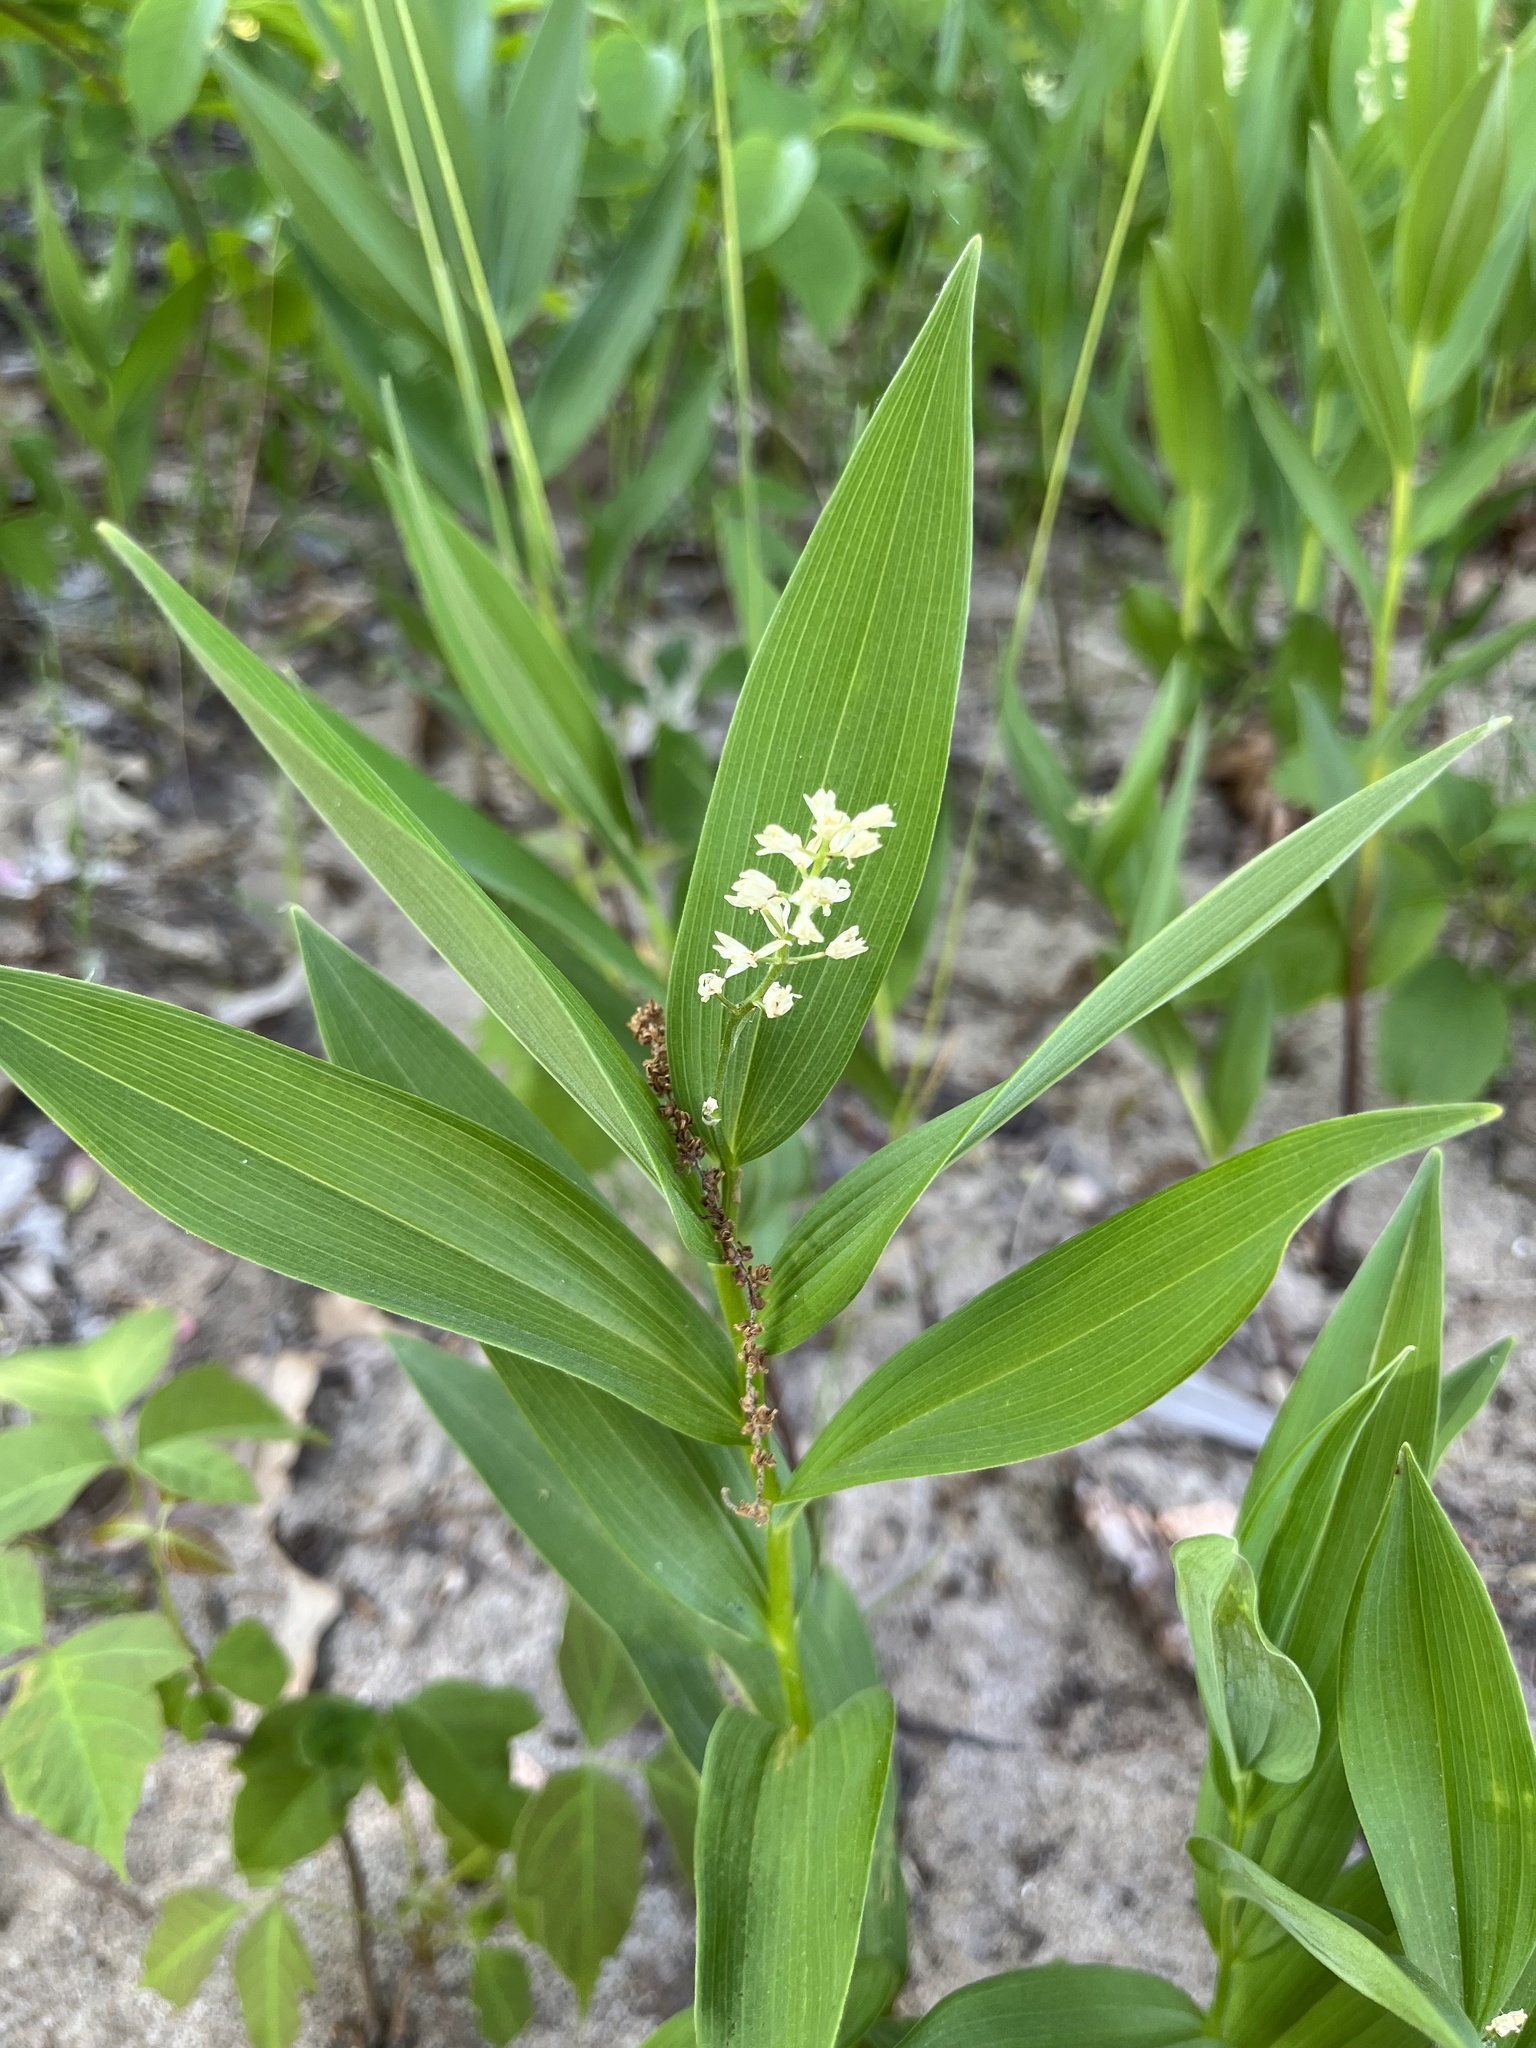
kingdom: Plantae
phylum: Tracheophyta
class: Liliopsida
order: Asparagales
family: Asparagaceae
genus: Maianthemum
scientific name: Maianthemum stellatum
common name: Little false solomon's seal
